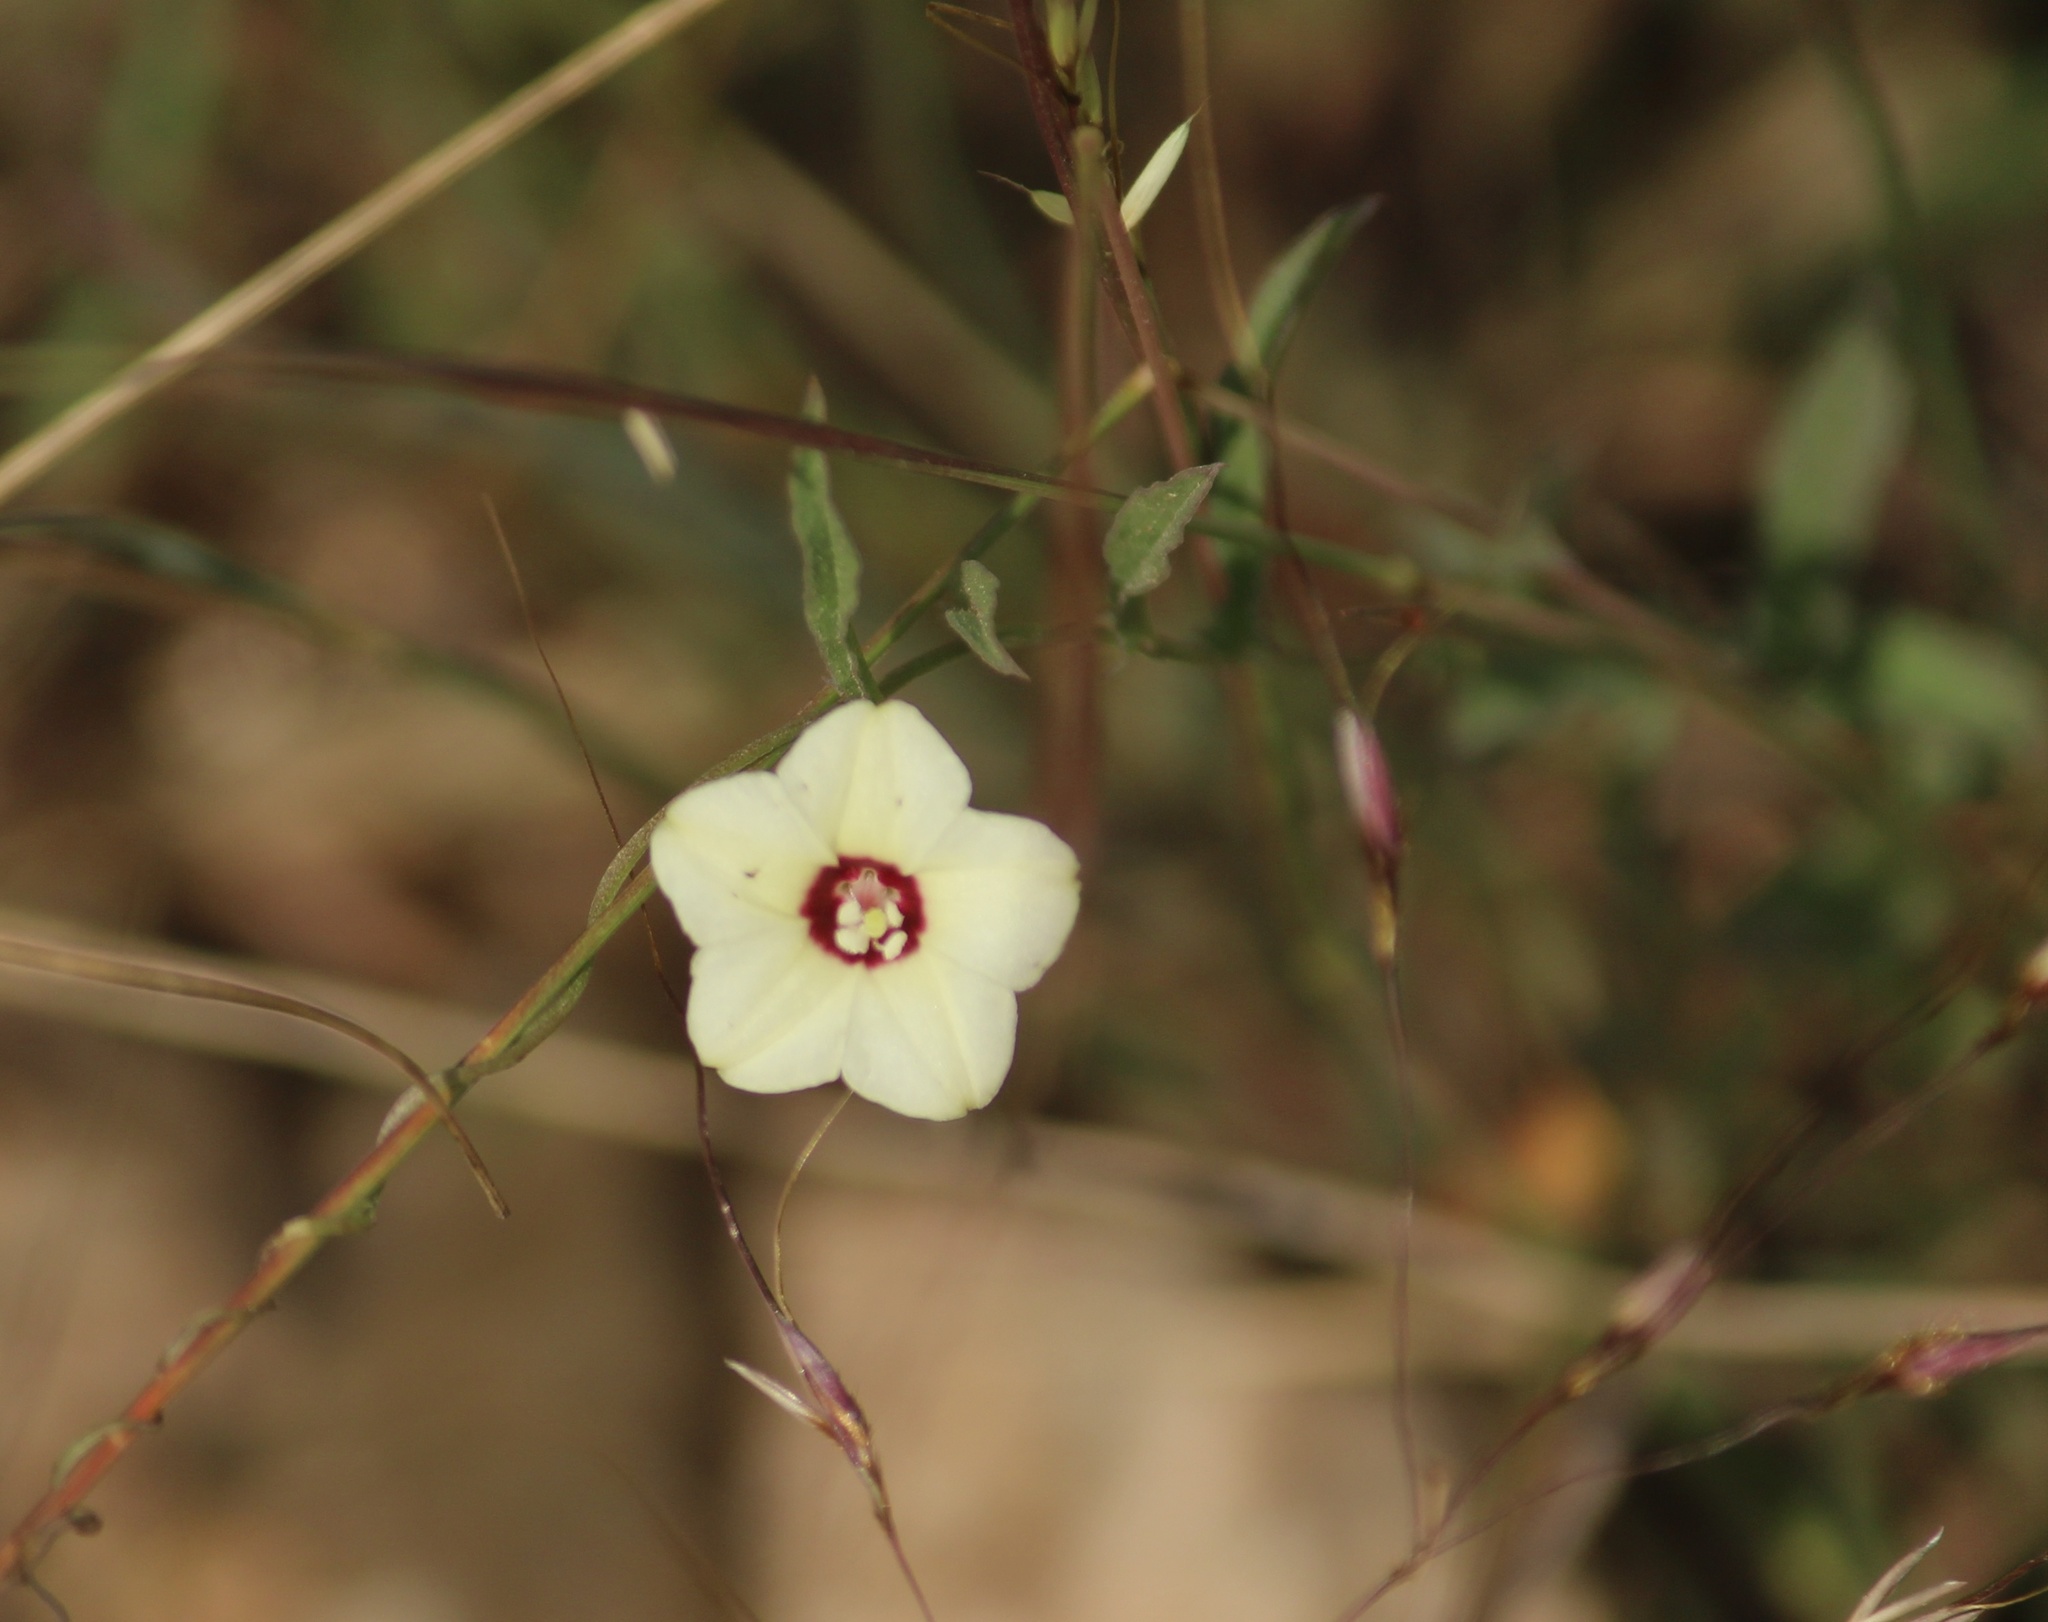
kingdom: Plantae
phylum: Tracheophyta
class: Magnoliopsida
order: Solanales
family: Convolvulaceae
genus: Ipomoea
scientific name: Ipomoea obscura
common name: Obscure morning-glory
